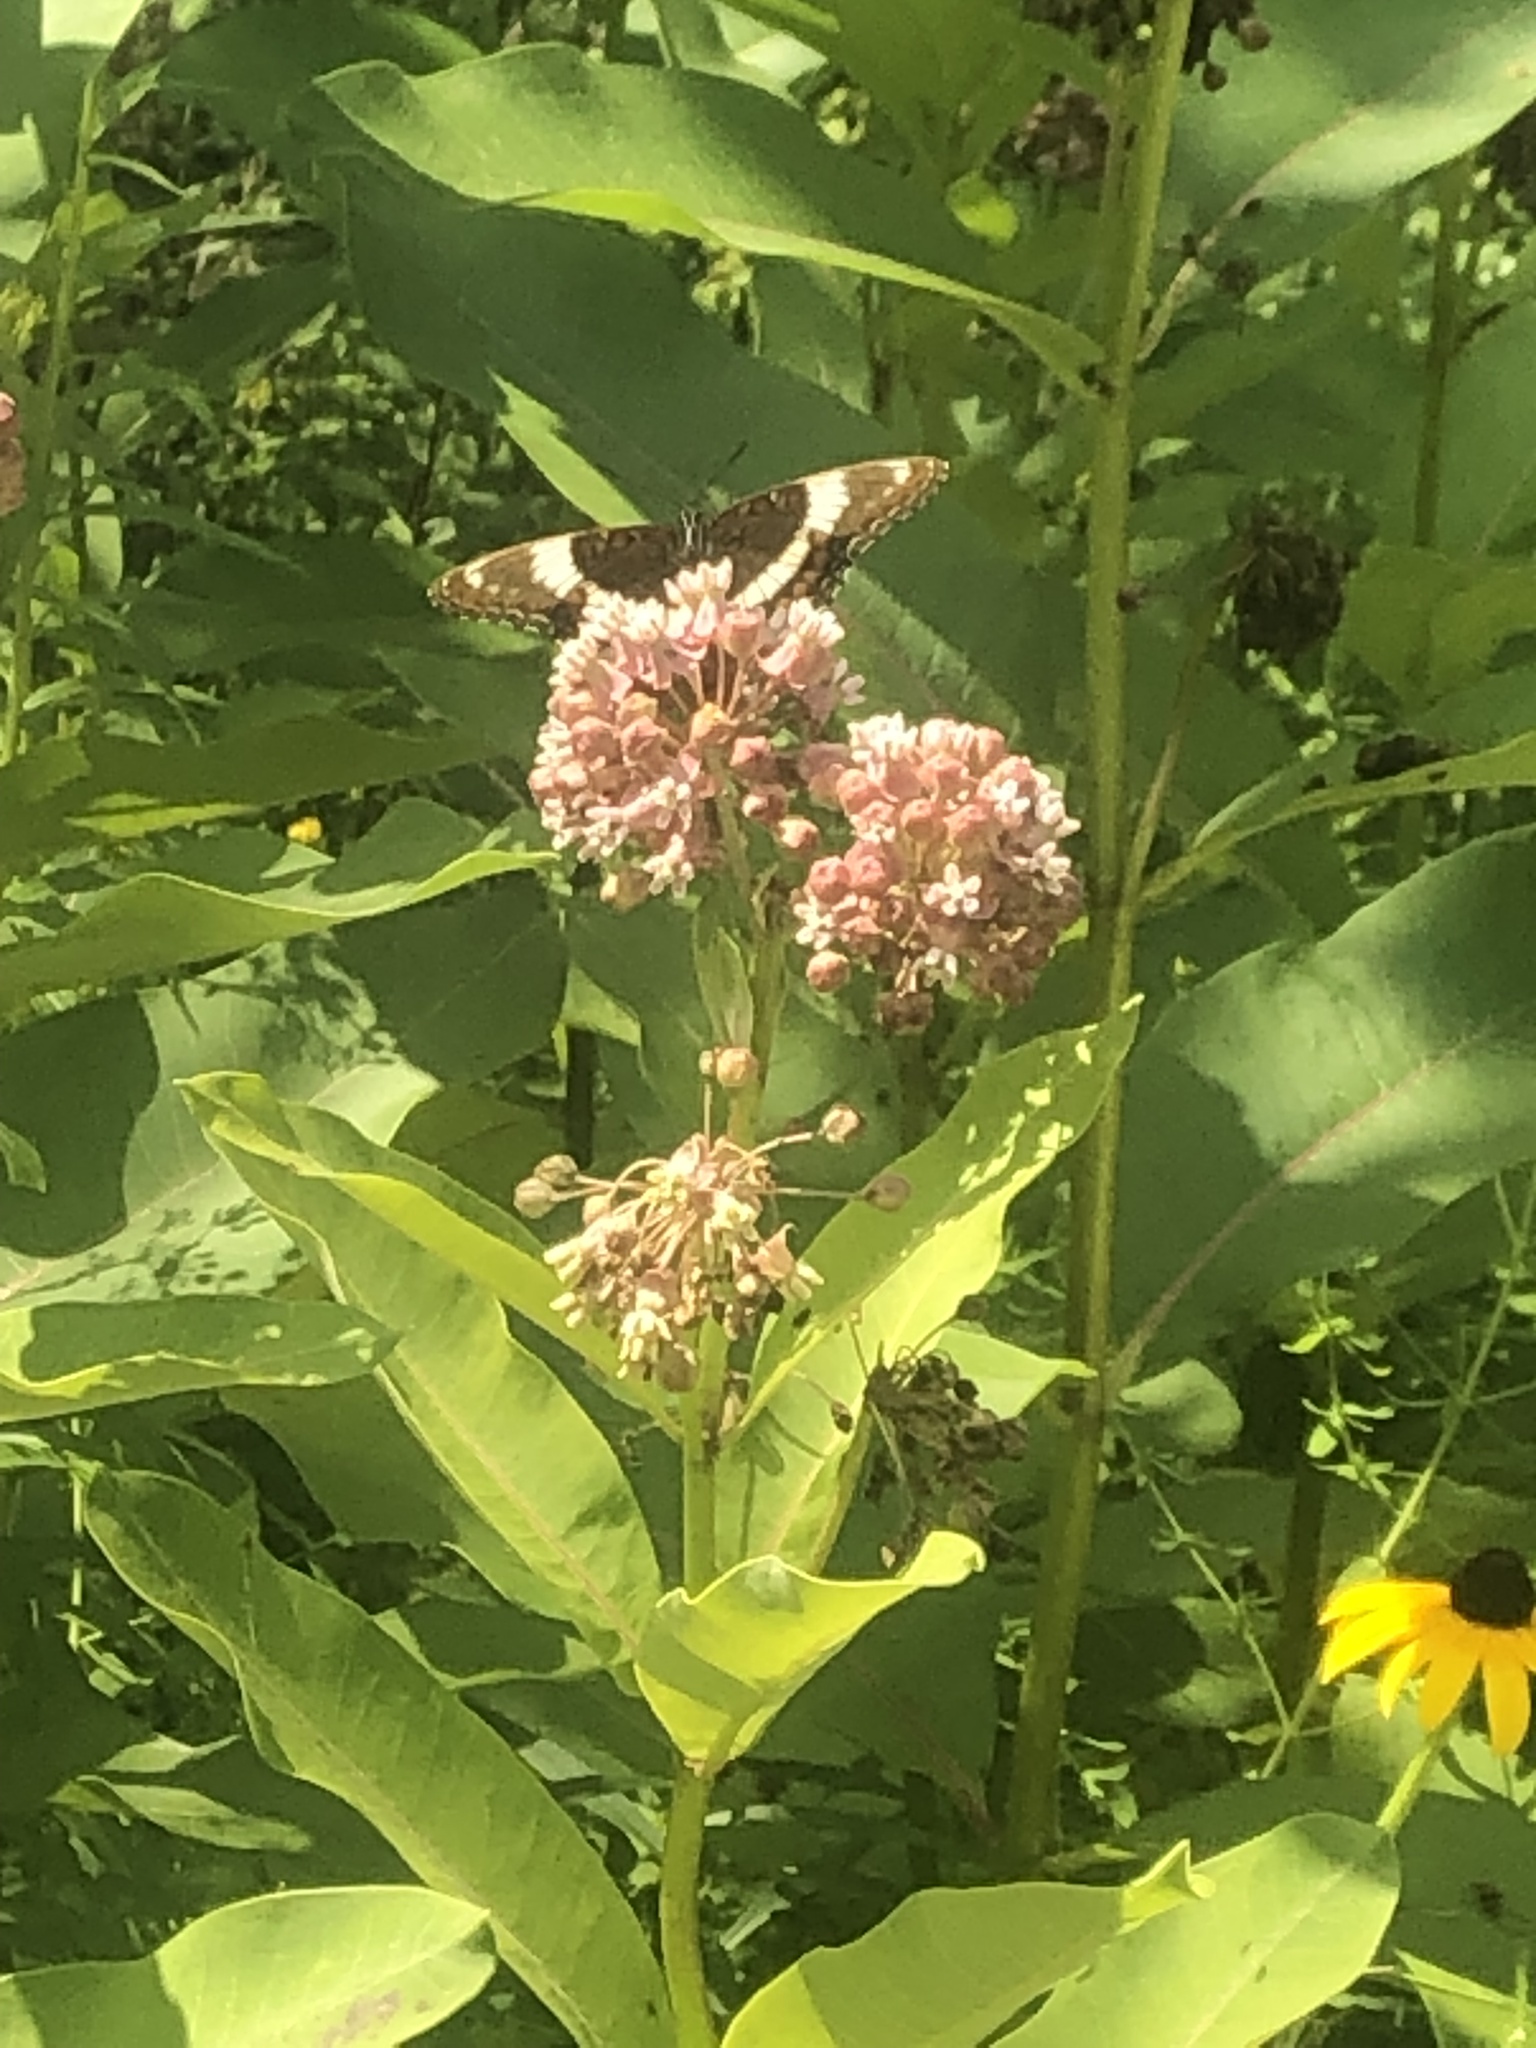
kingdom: Animalia
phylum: Arthropoda
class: Insecta
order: Lepidoptera
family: Nymphalidae
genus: Limenitis
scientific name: Limenitis arthemis
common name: Red-spotted admiral
